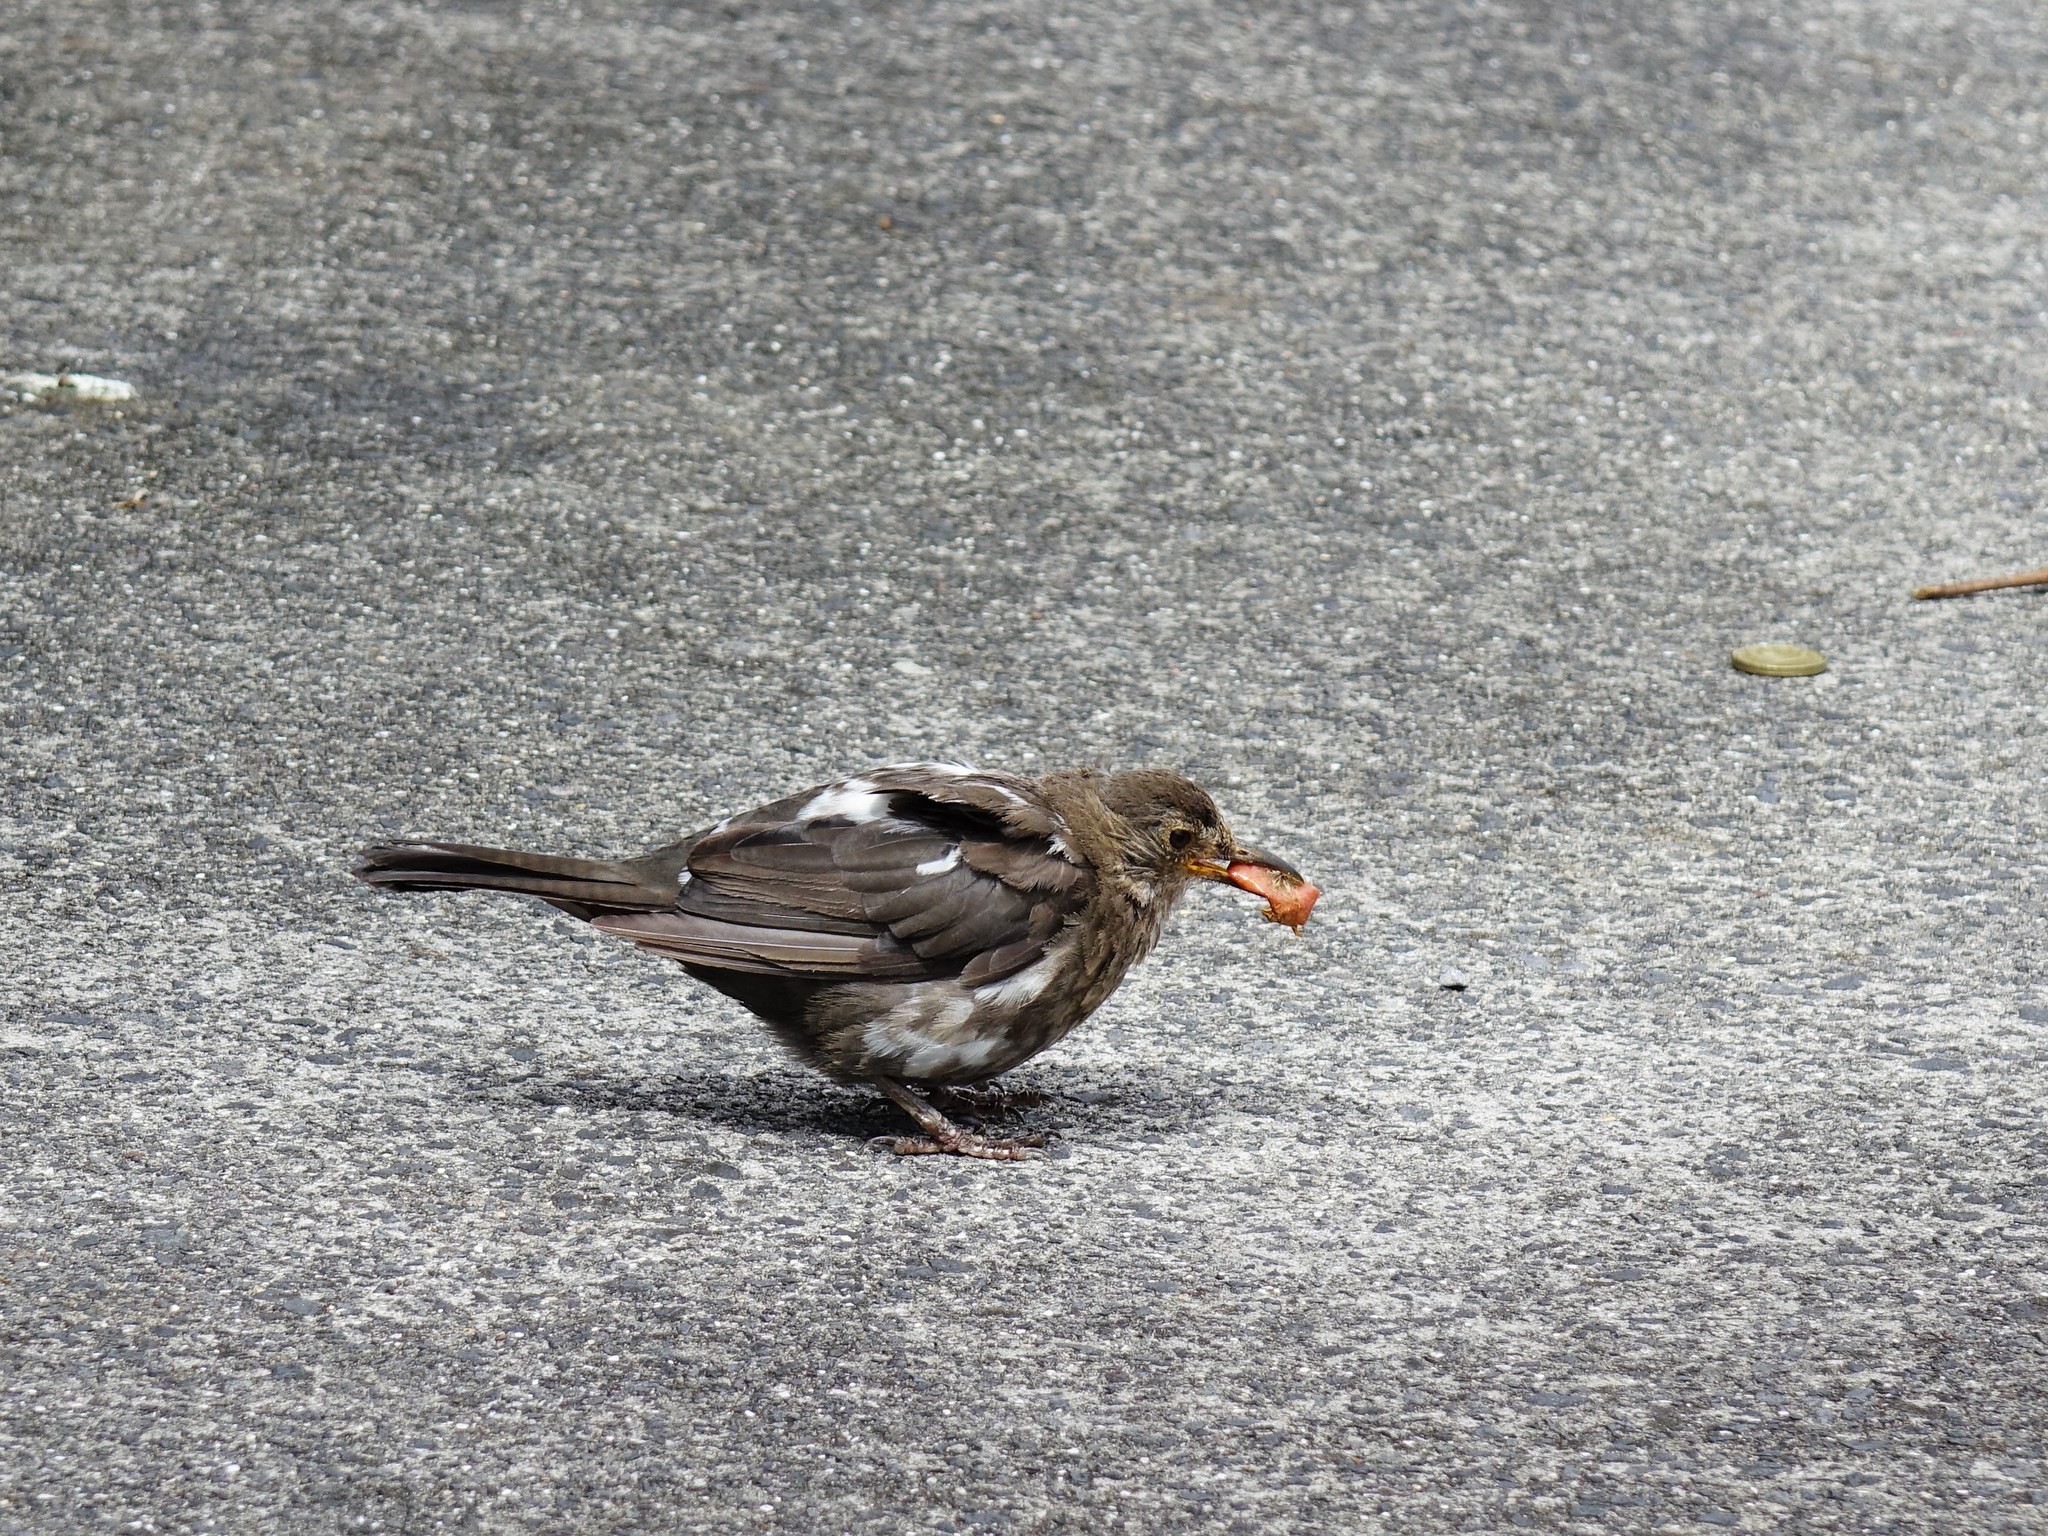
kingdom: Animalia
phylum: Chordata
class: Aves
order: Passeriformes
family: Turdidae
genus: Turdus
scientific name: Turdus merula
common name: Common blackbird
